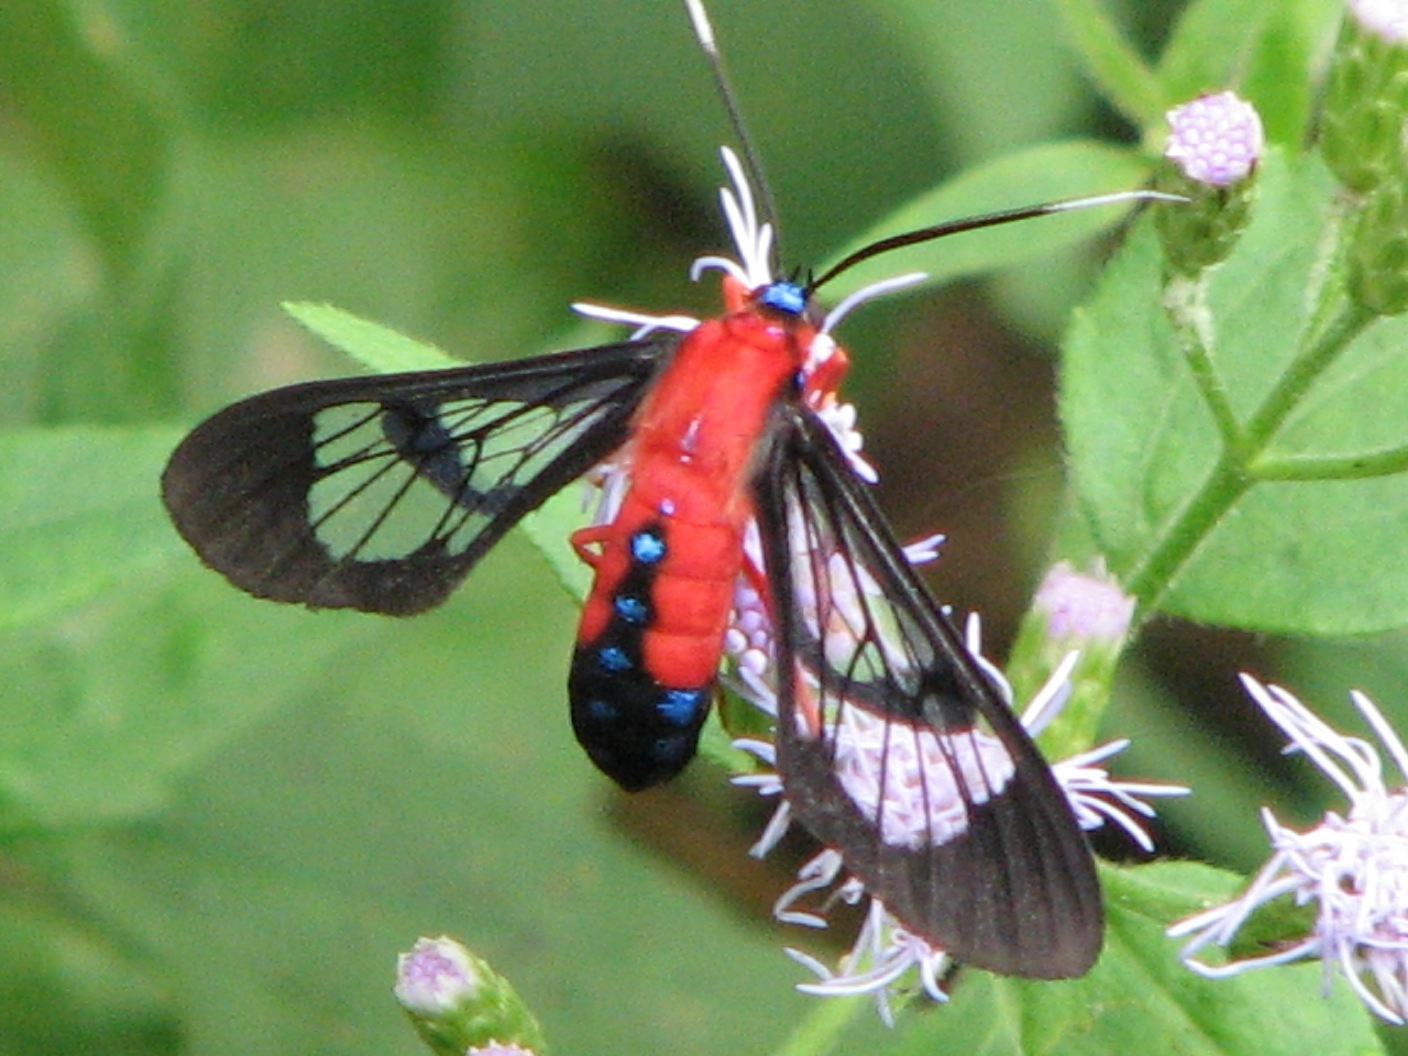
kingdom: Animalia
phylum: Arthropoda
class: Insecta
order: Lepidoptera
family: Erebidae
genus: Cosmosoma
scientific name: Cosmosoma myrodora
